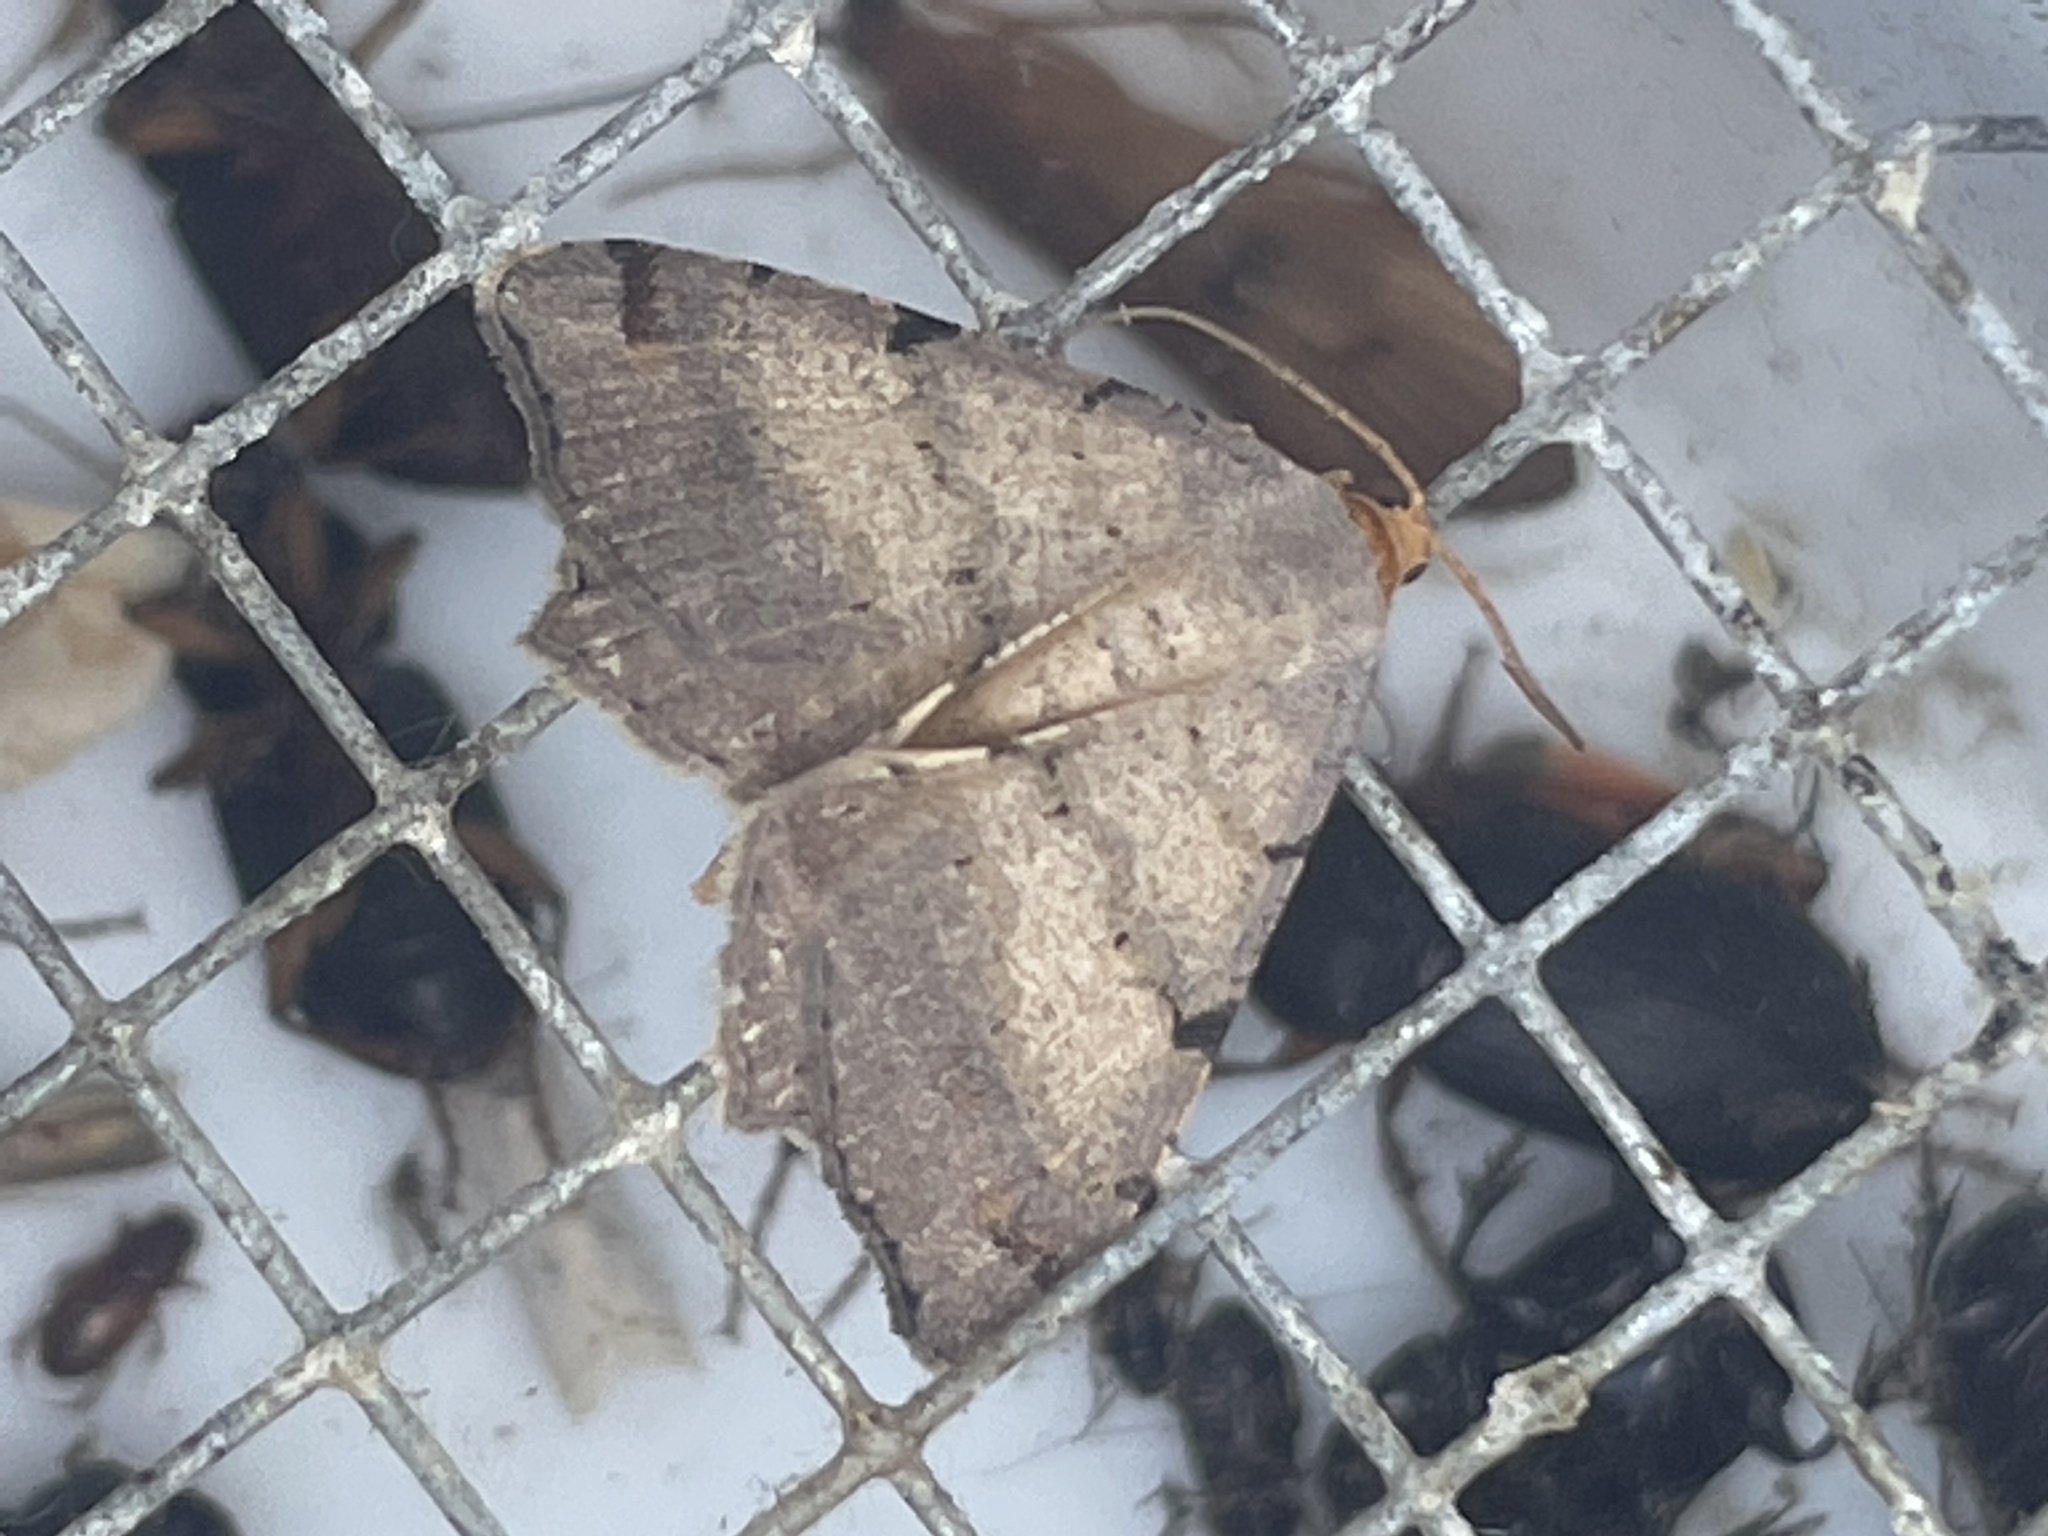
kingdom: Animalia
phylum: Arthropoda
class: Insecta
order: Lepidoptera
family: Geometridae
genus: Macaria
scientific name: Macaria bicolorata
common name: Dingy angle
